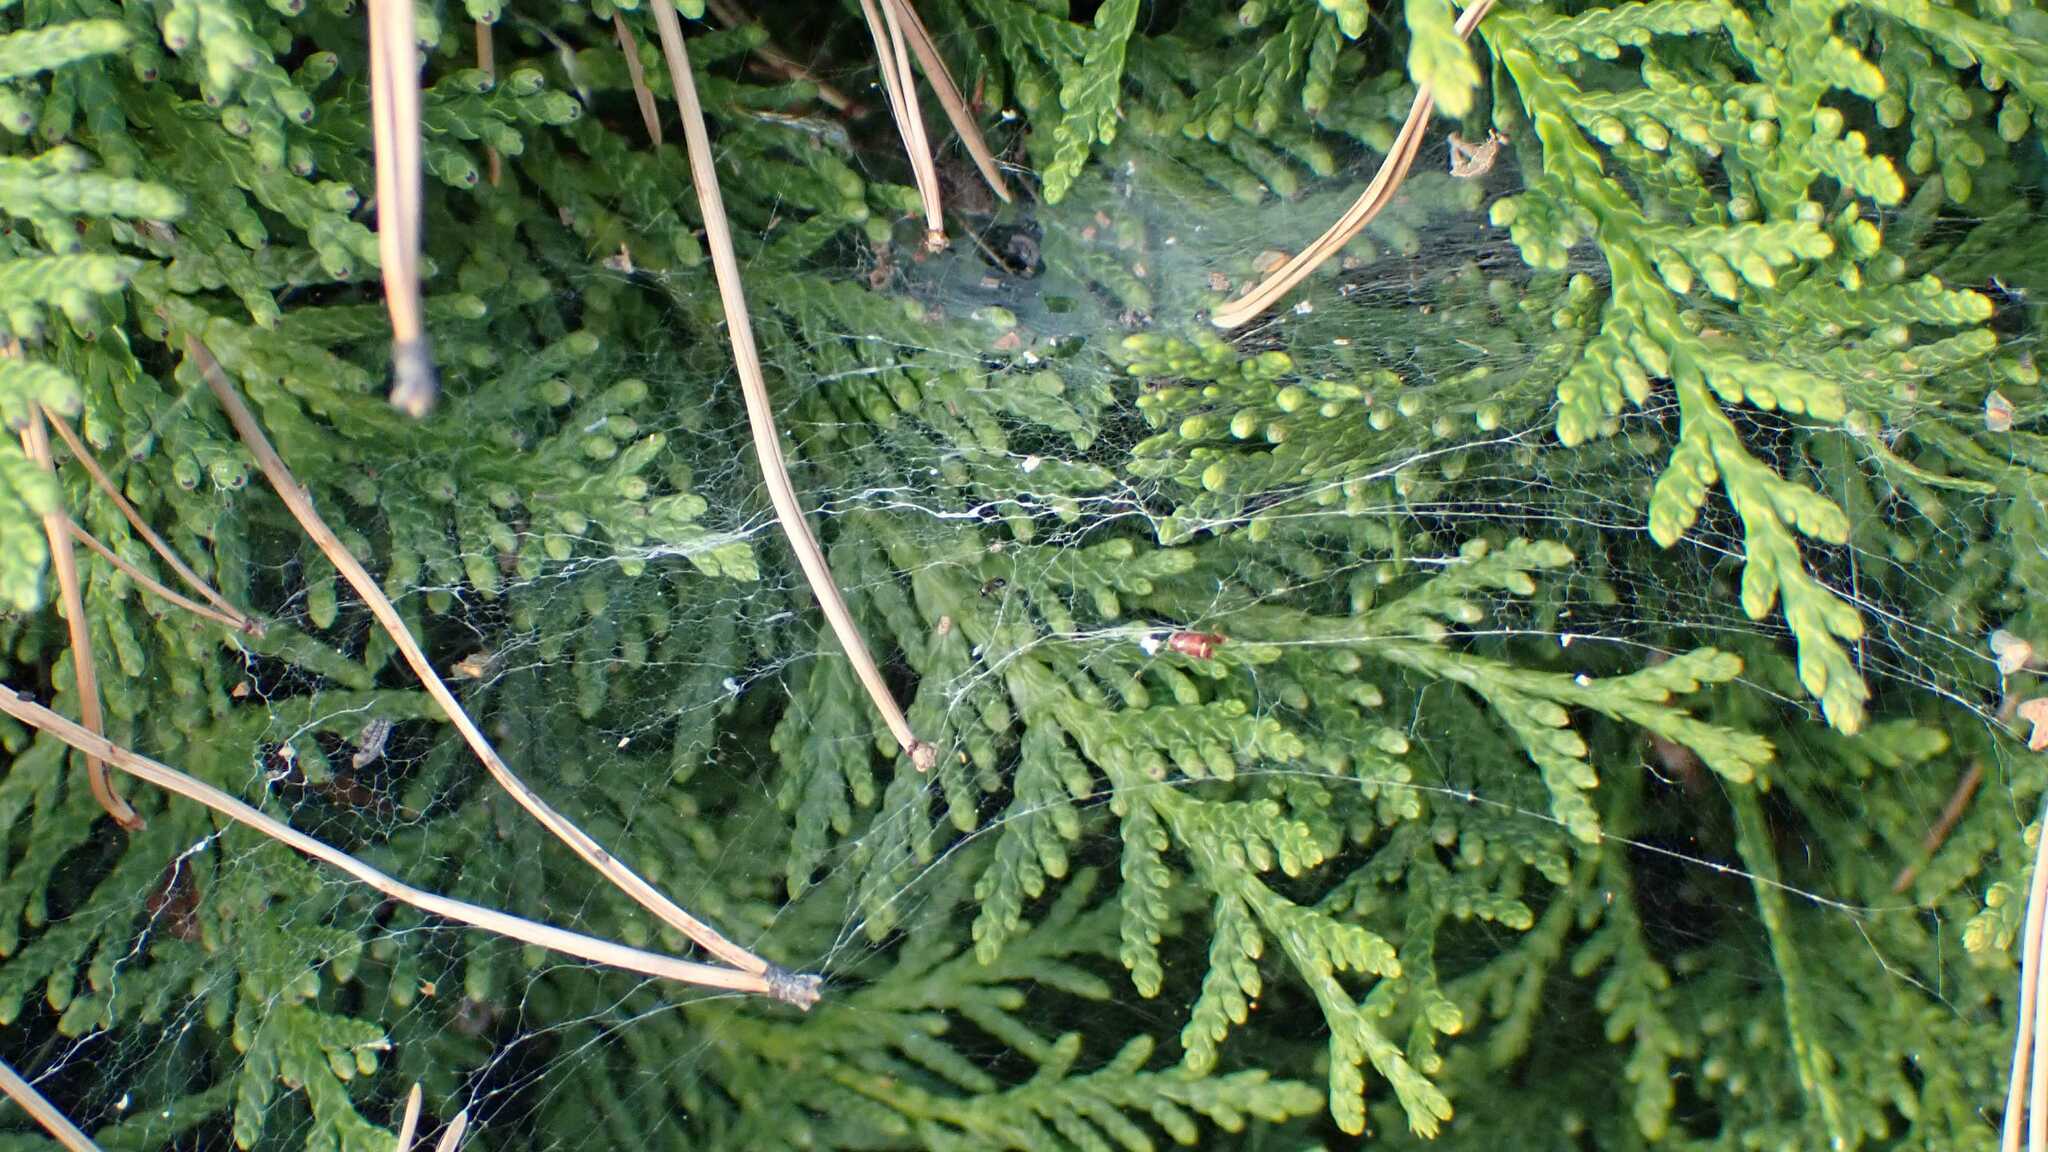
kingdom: Animalia
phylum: Arthropoda
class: Arachnida
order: Araneae
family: Agelenidae
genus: Allagelena
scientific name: Allagelena gracilens
